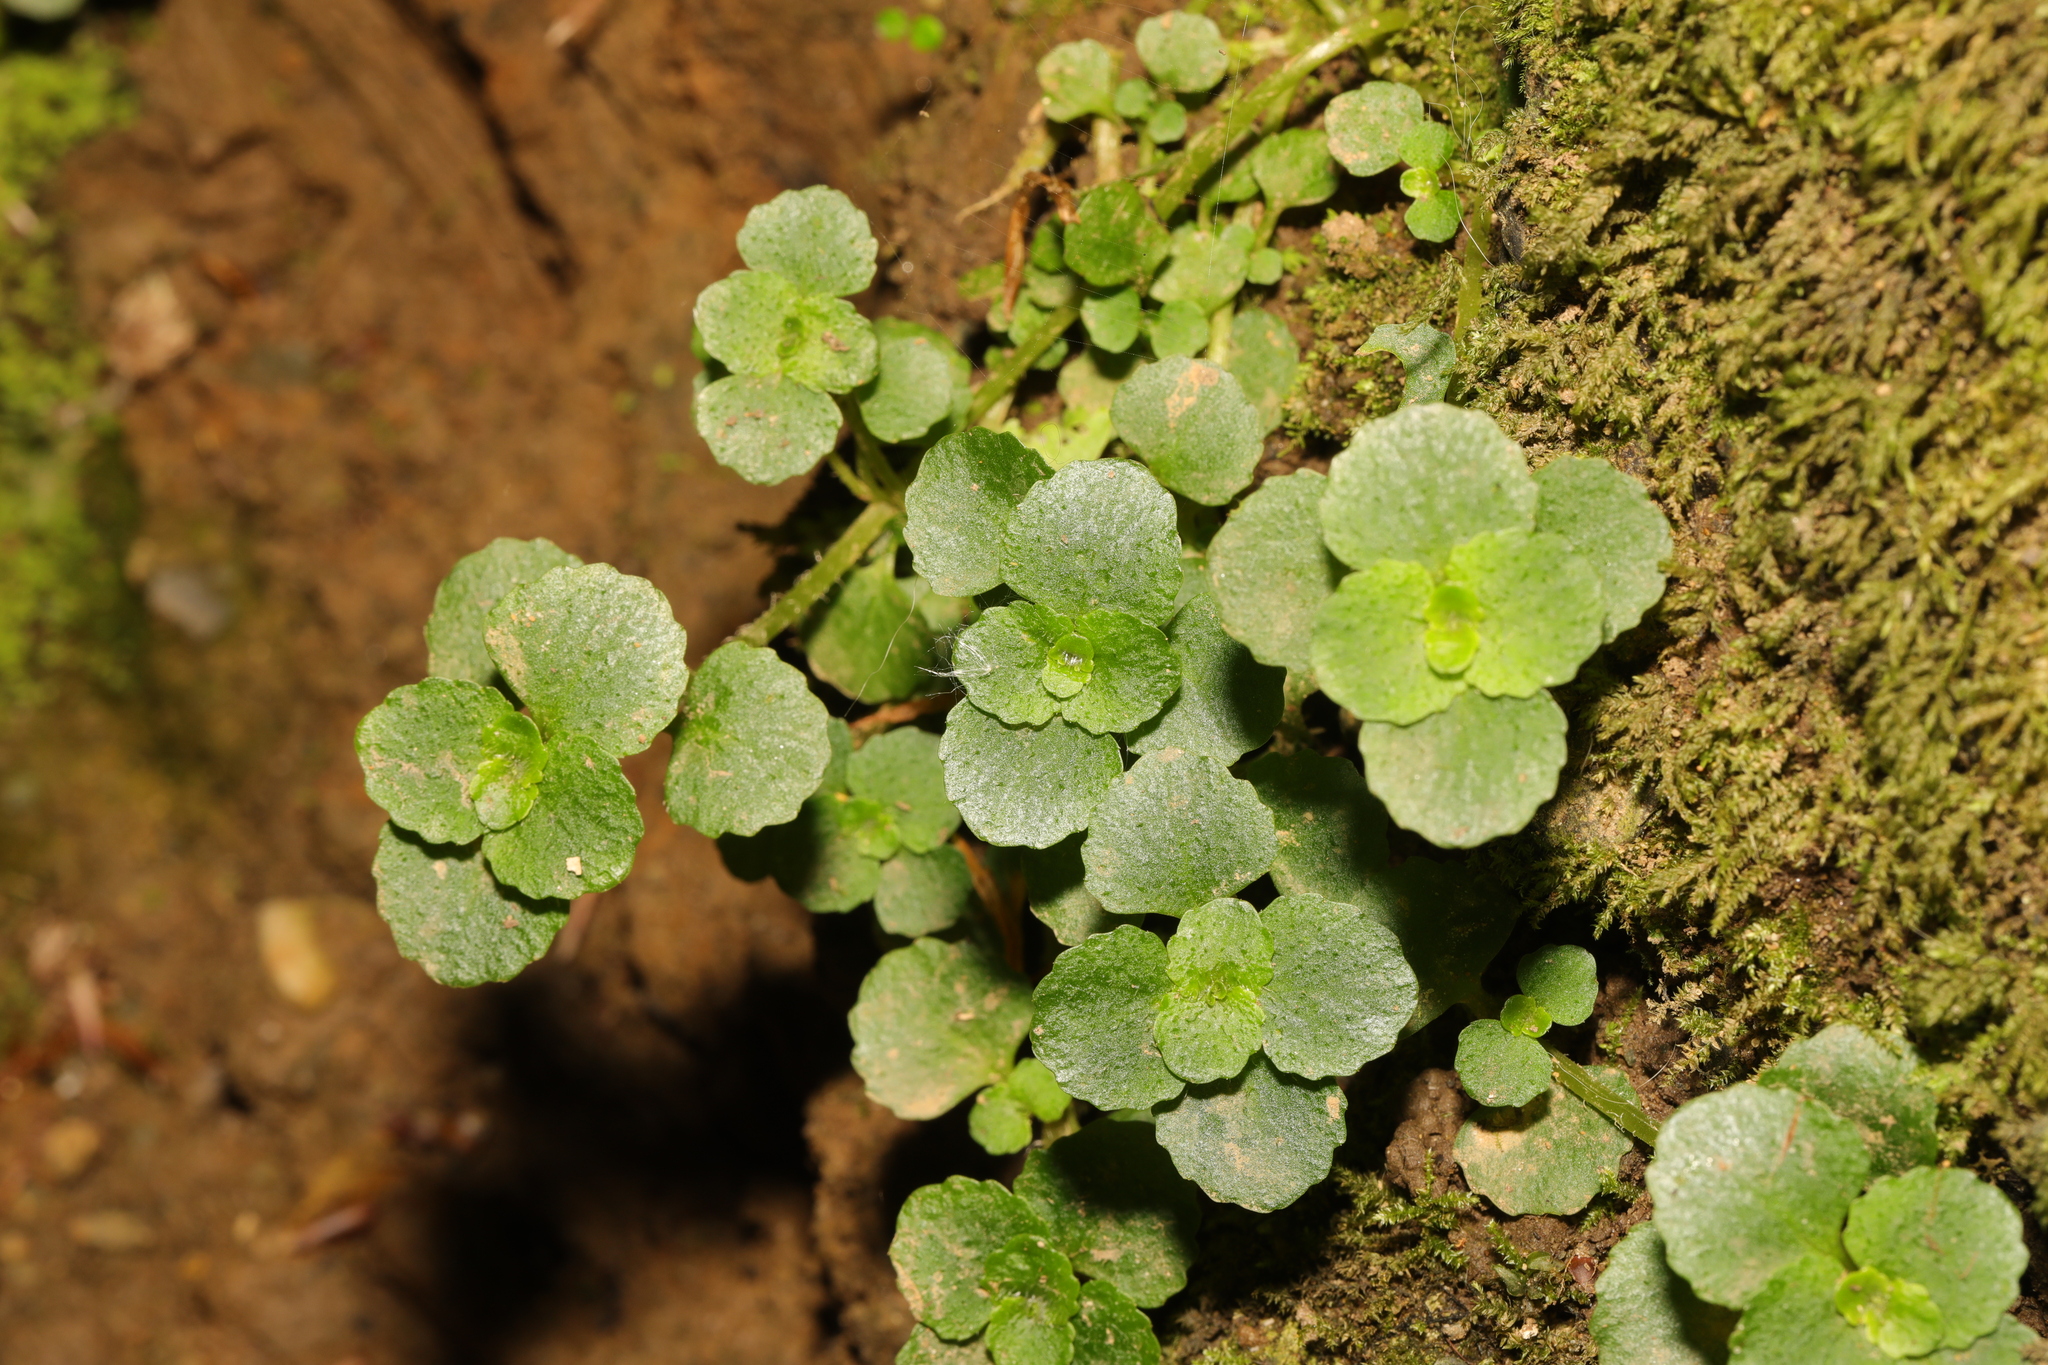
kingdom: Plantae
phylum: Tracheophyta
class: Magnoliopsida
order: Saxifragales
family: Saxifragaceae
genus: Chrysosplenium
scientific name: Chrysosplenium oppositifolium
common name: Opposite-leaved golden-saxifrage
